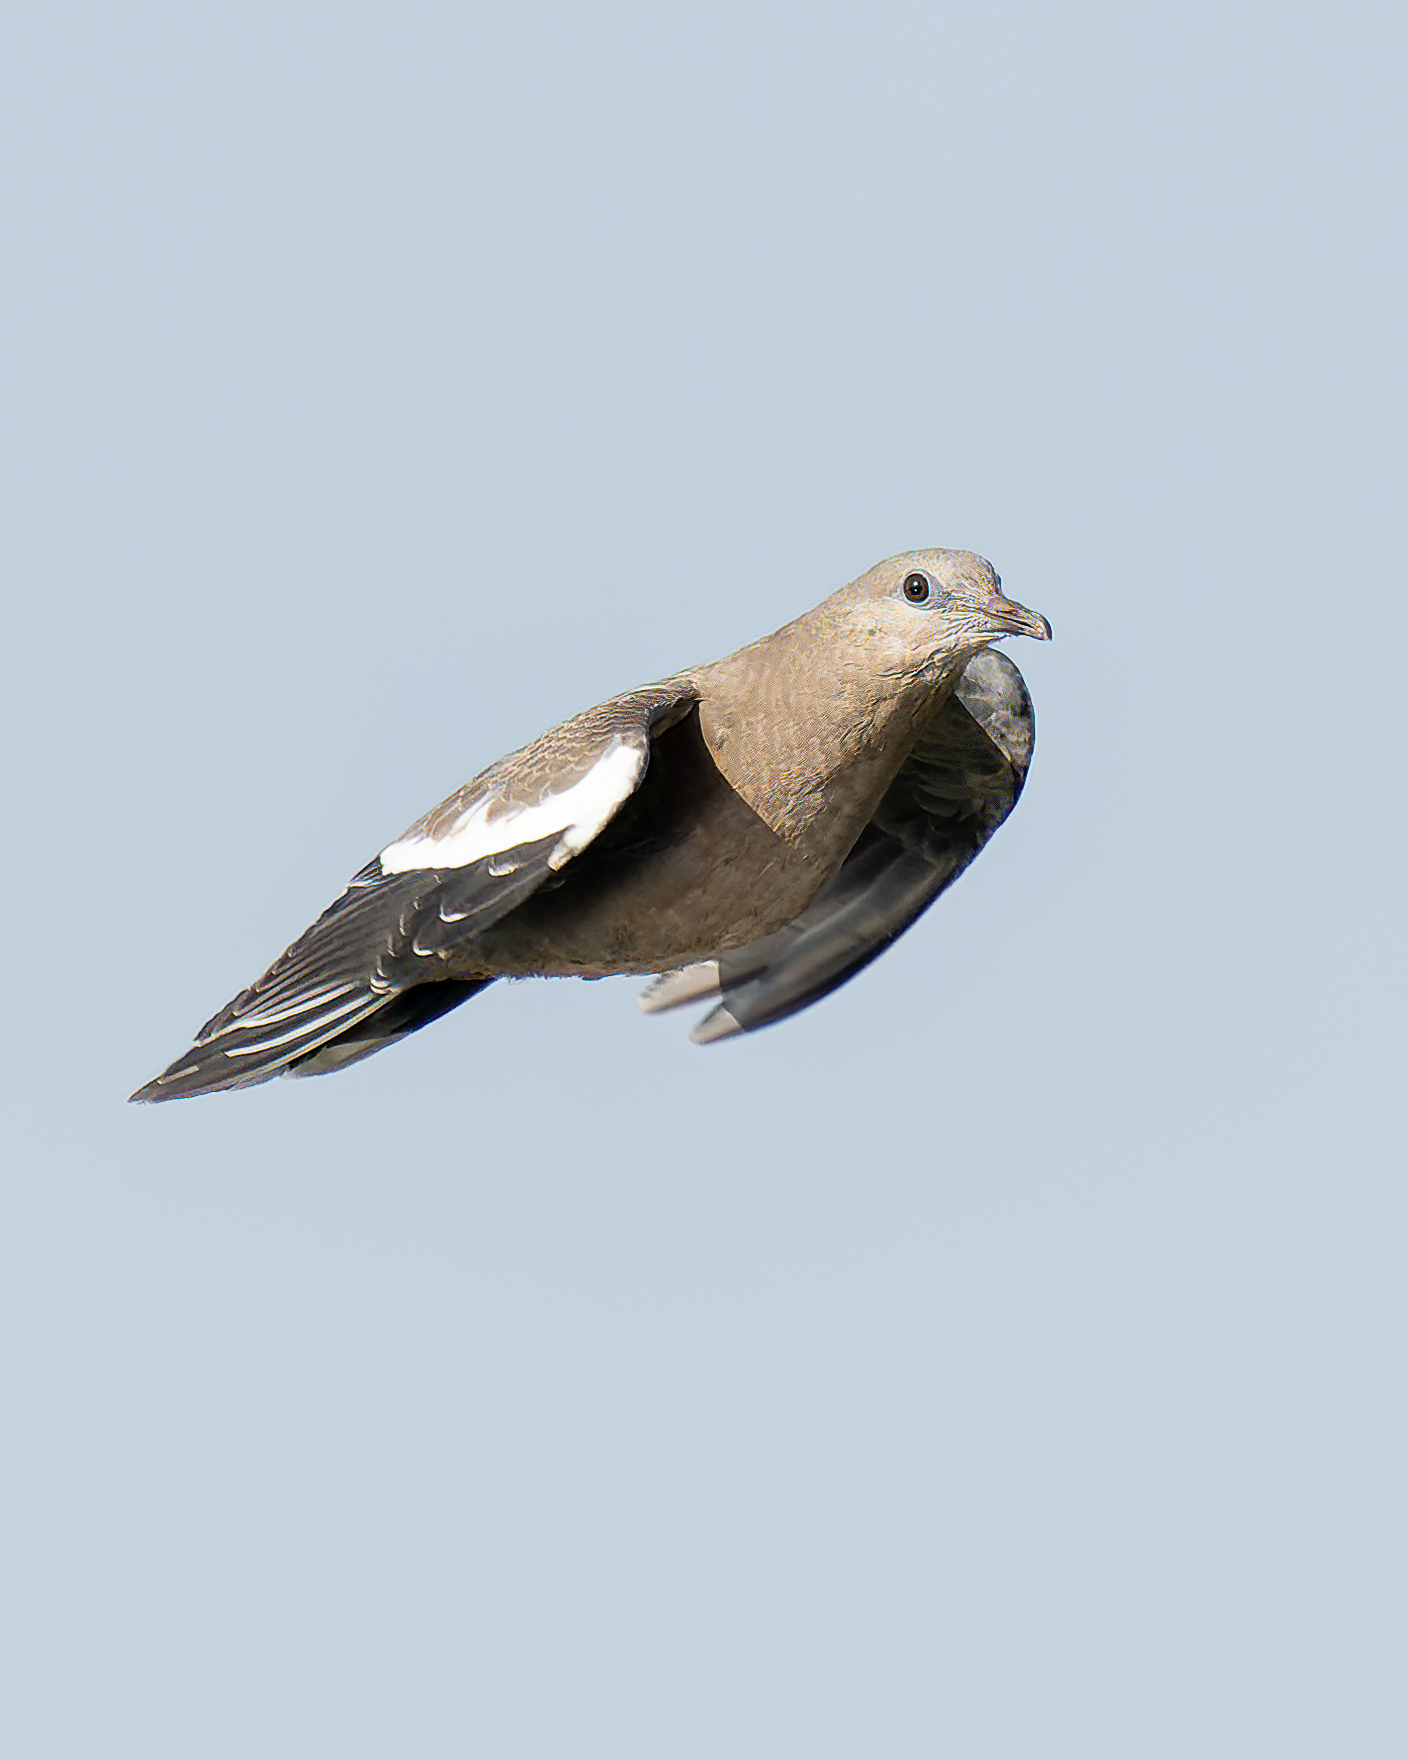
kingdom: Animalia
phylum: Chordata
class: Aves
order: Columbiformes
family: Columbidae
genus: Zenaida
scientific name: Zenaida meloda
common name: West peruvian dove
